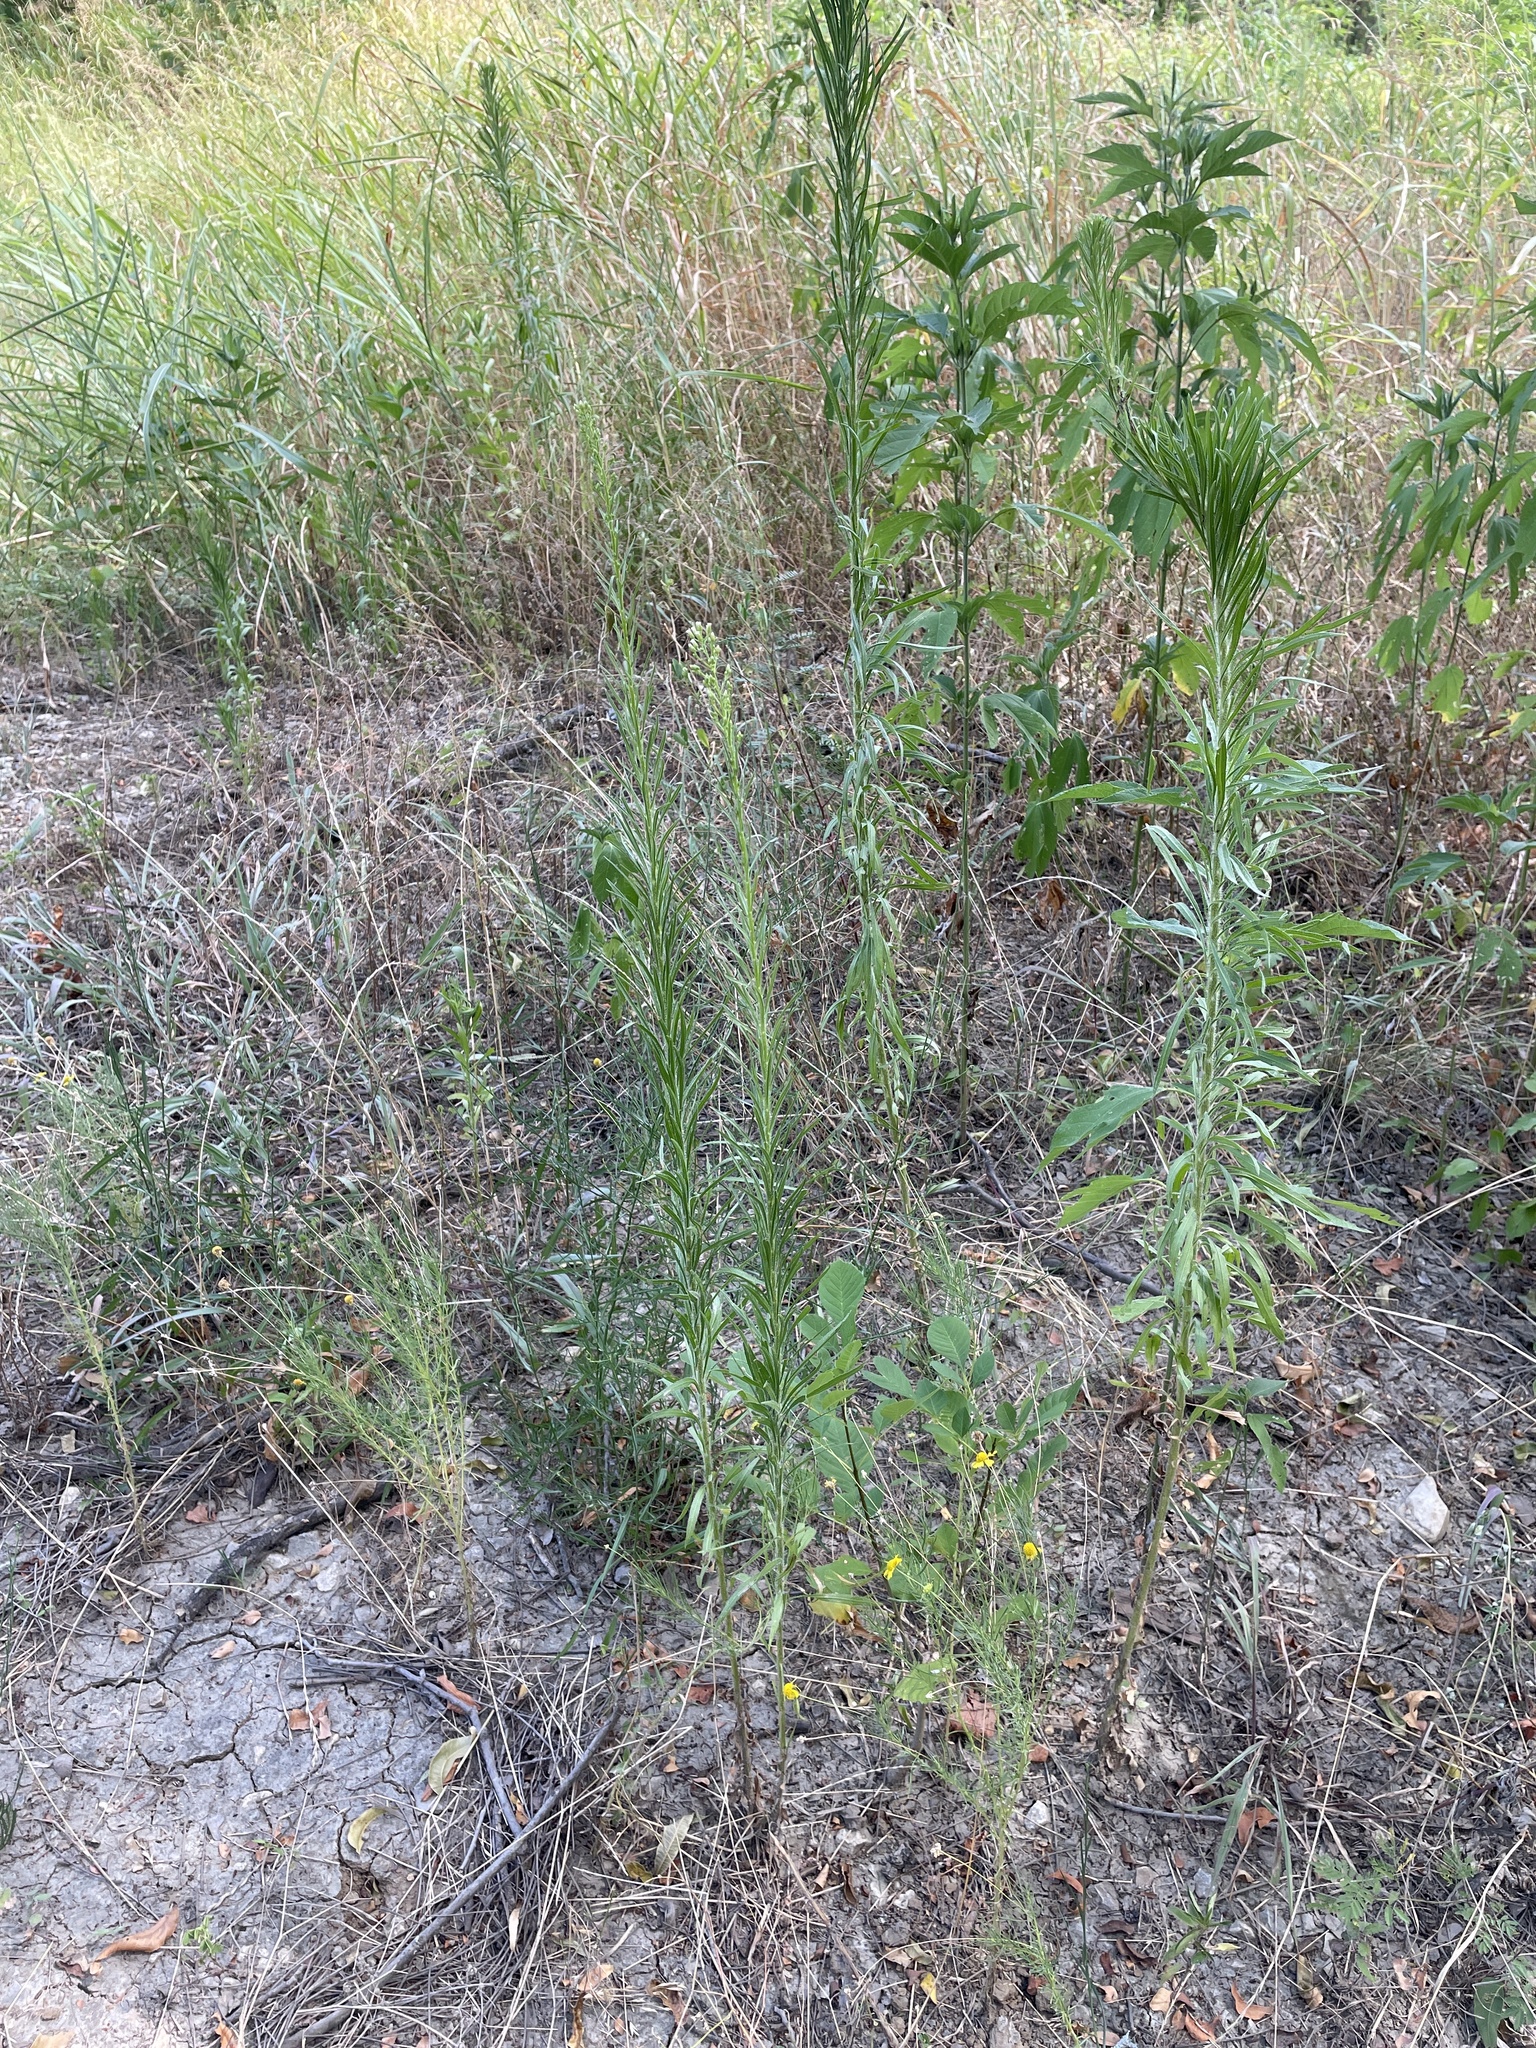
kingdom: Plantae
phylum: Tracheophyta
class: Magnoliopsida
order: Asterales
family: Asteraceae
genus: Erigeron
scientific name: Erigeron canadensis
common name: Canadian fleabane
